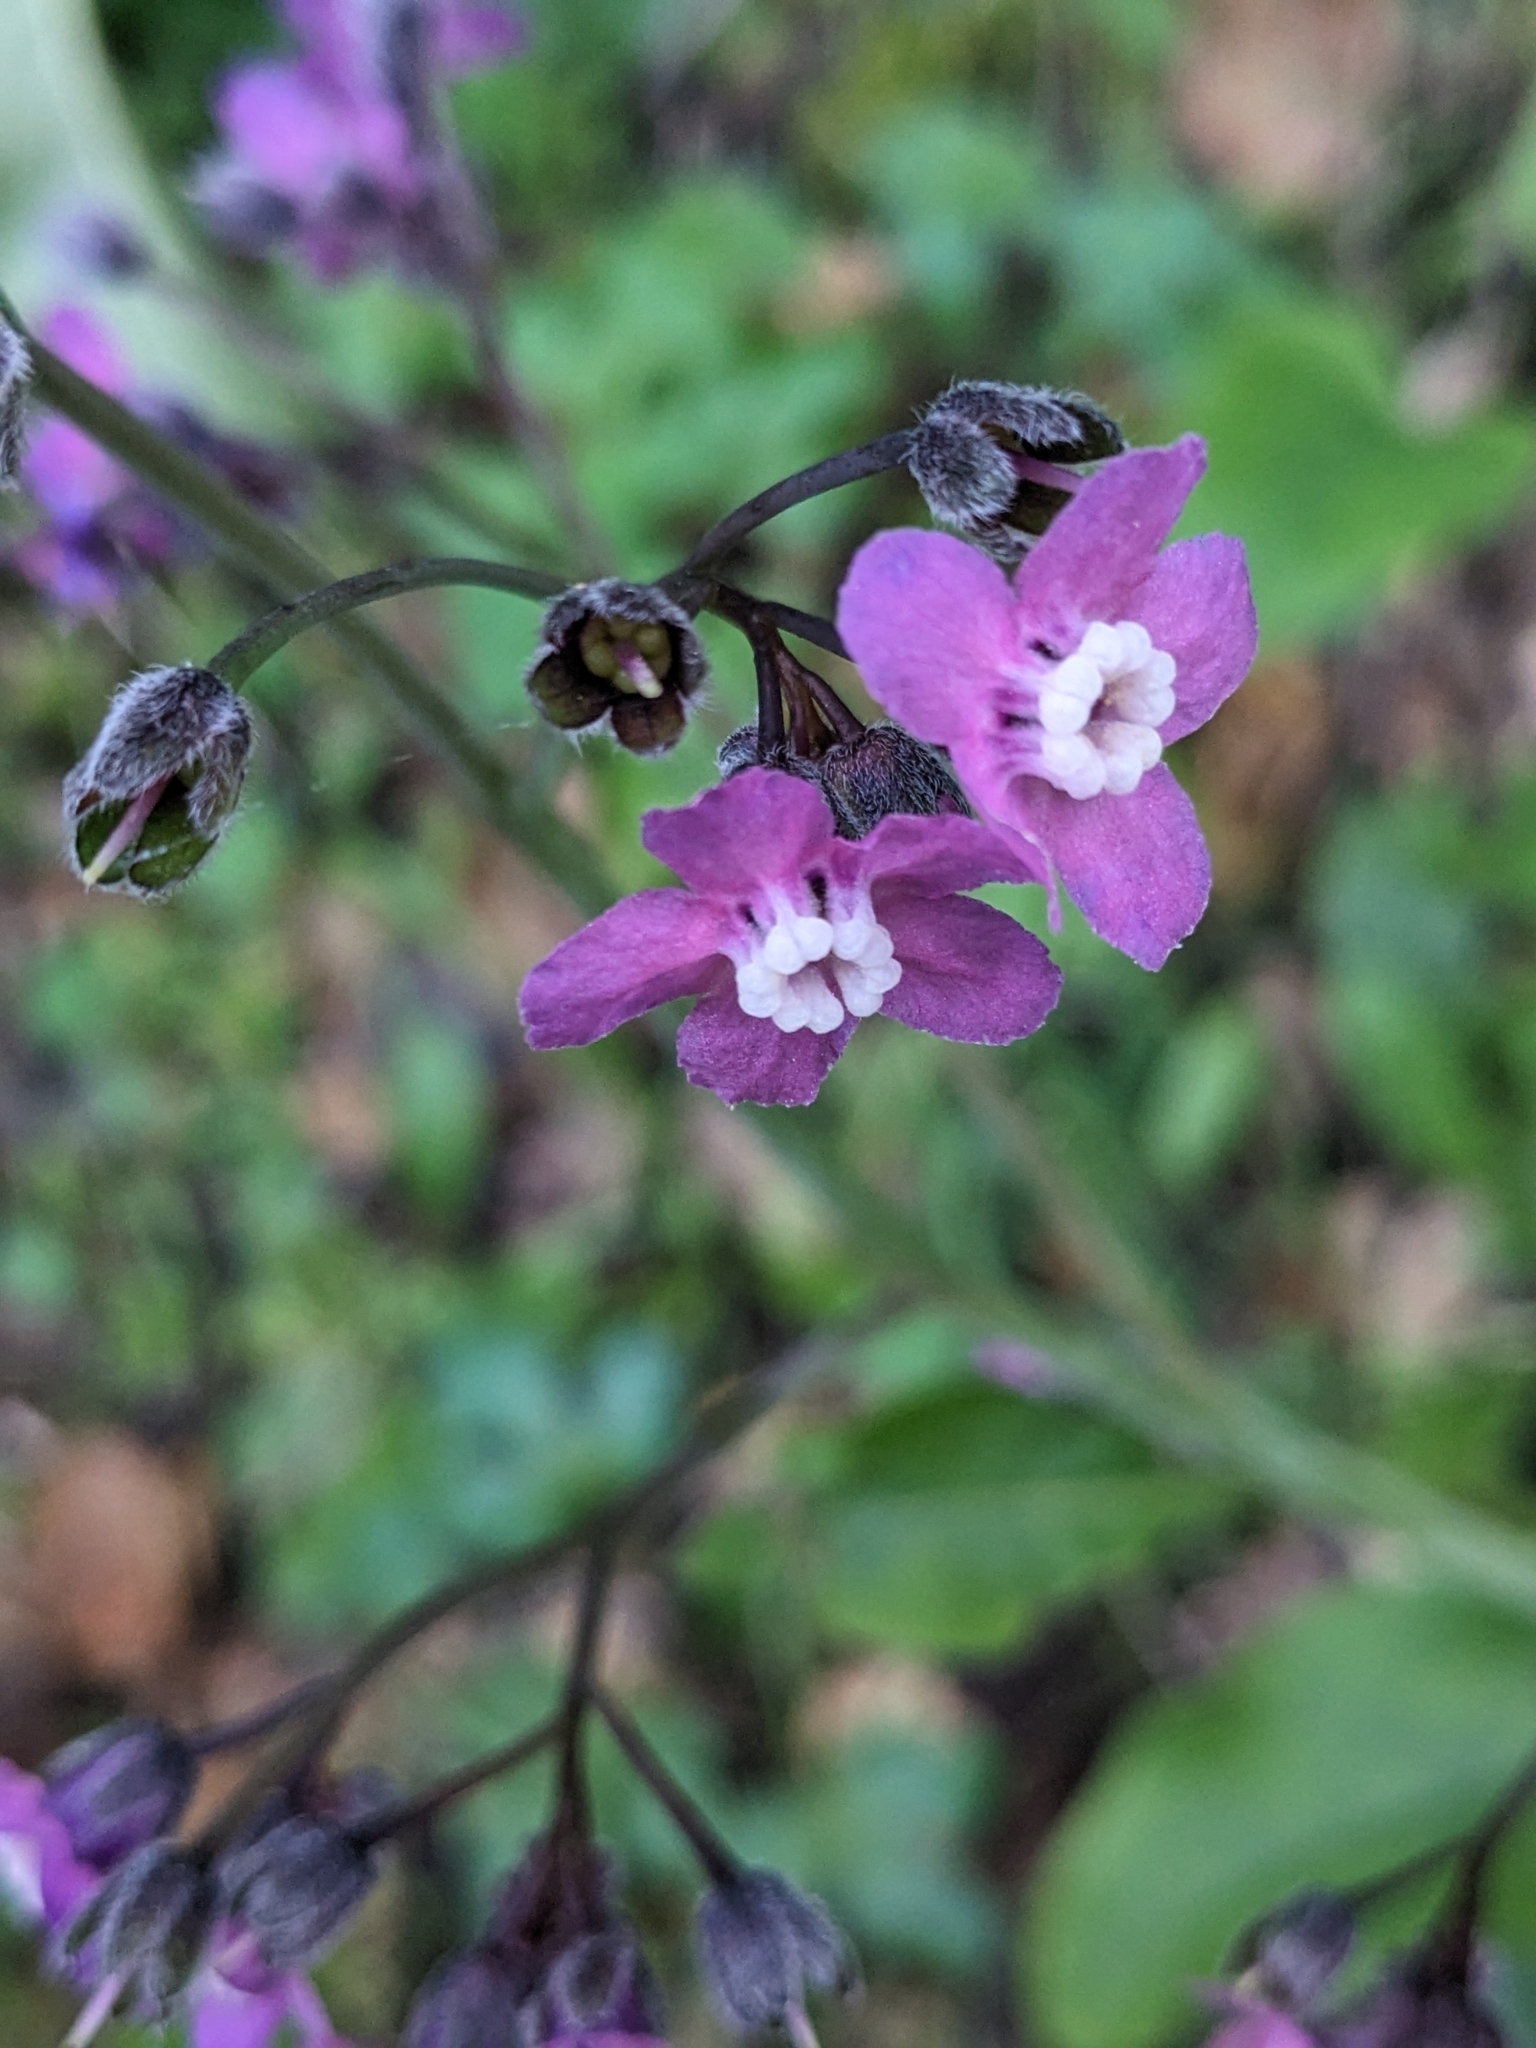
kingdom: Plantae
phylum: Tracheophyta
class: Magnoliopsida
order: Boraginales
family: Boraginaceae
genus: Adelinia
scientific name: Adelinia grande
